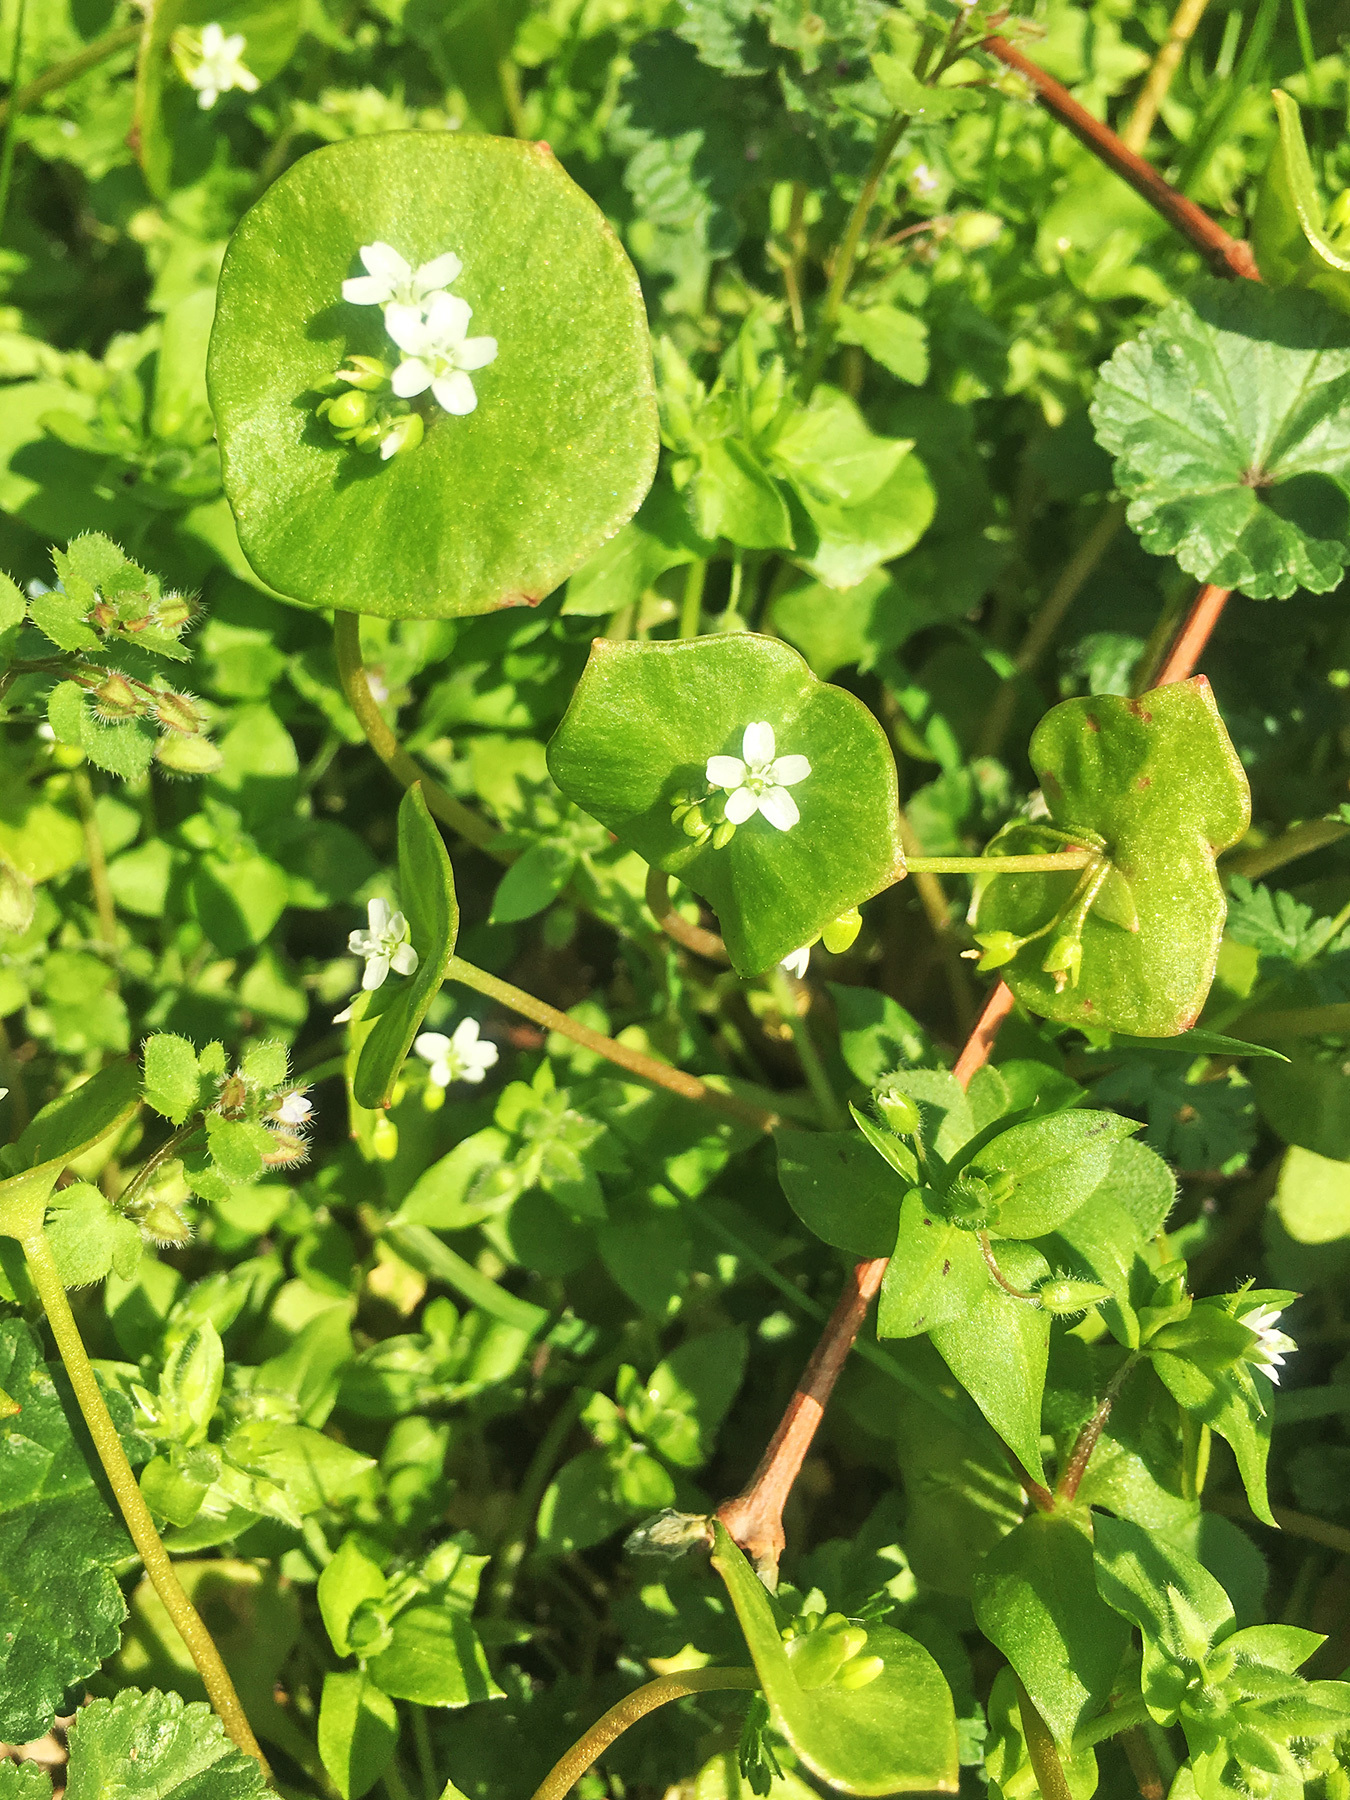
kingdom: Plantae
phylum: Tracheophyta
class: Magnoliopsida
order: Caryophyllales
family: Montiaceae
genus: Claytonia
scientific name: Claytonia perfoliata
